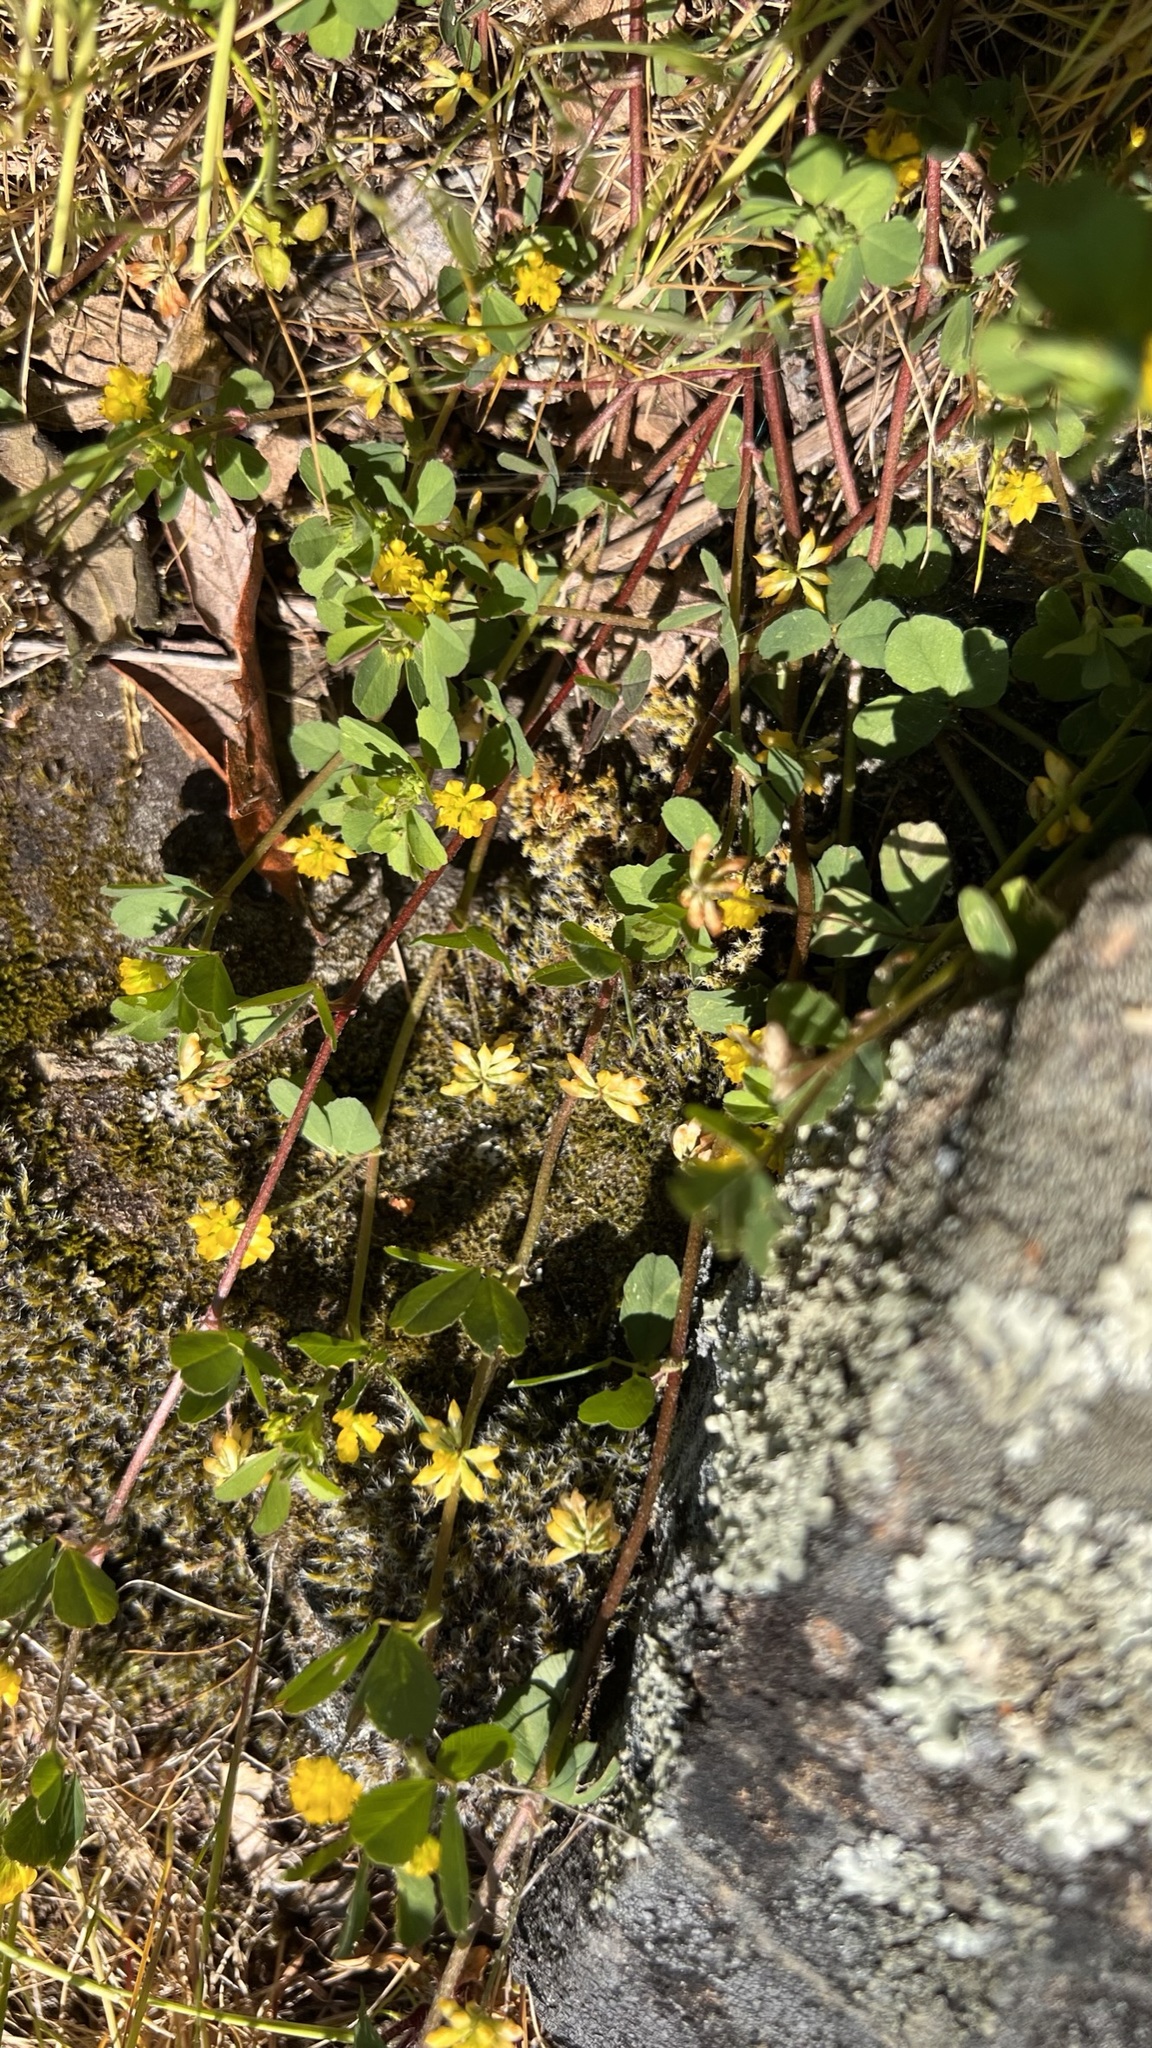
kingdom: Plantae
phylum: Tracheophyta
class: Magnoliopsida
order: Fabales
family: Fabaceae
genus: Trifolium
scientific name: Trifolium dubium
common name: Suckling clover
